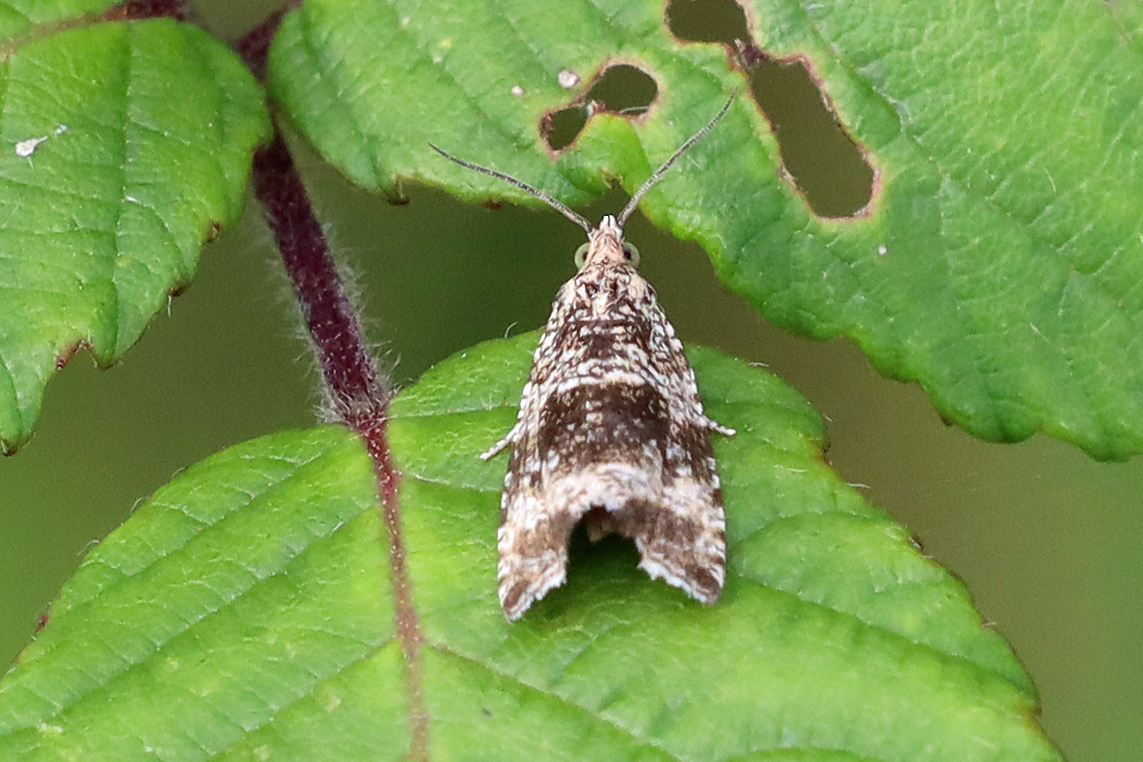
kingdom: Animalia
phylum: Arthropoda
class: Insecta
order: Lepidoptera
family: Tortricidae
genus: Syricoris
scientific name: Syricoris lacunana
